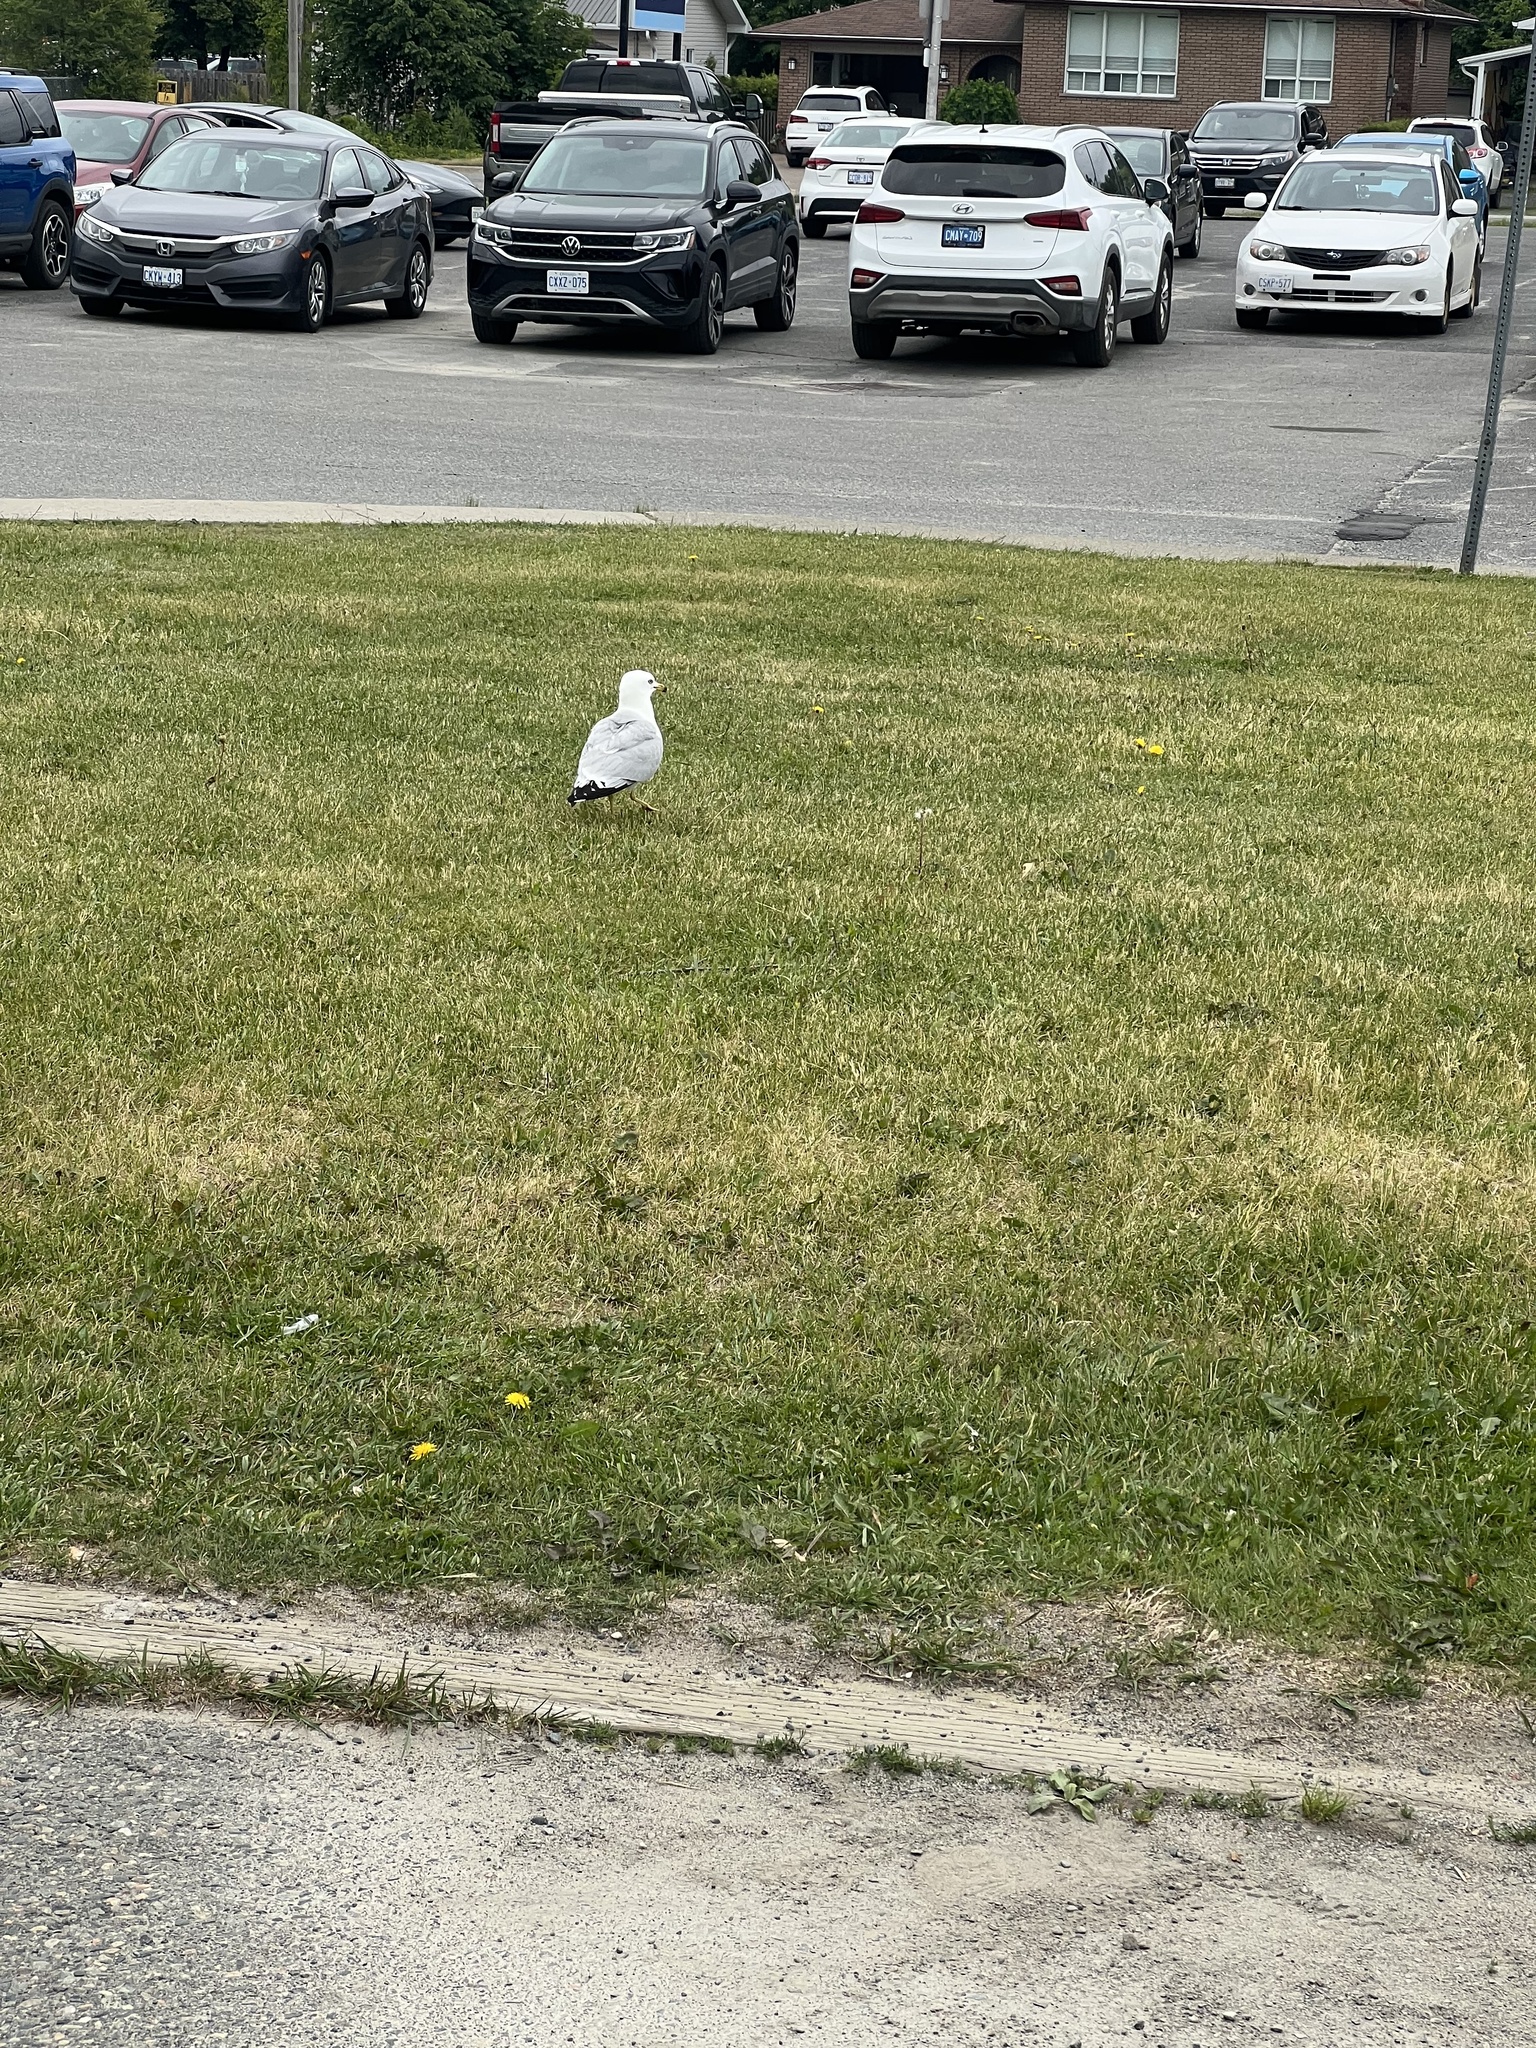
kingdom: Animalia
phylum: Chordata
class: Aves
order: Charadriiformes
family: Laridae
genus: Larus
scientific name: Larus delawarensis
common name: Ring-billed gull
